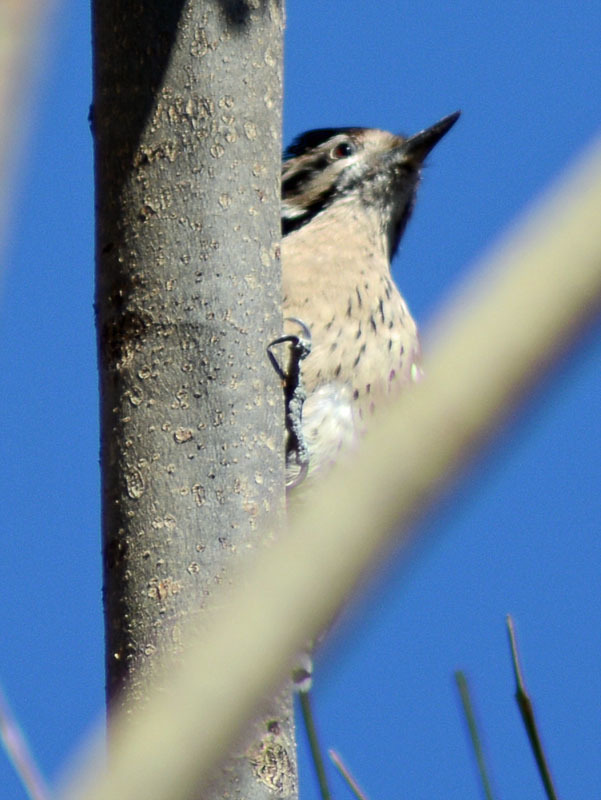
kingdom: Animalia
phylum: Chordata
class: Aves
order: Piciformes
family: Picidae
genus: Dryobates
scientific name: Dryobates scalaris
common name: Ladder-backed woodpecker
